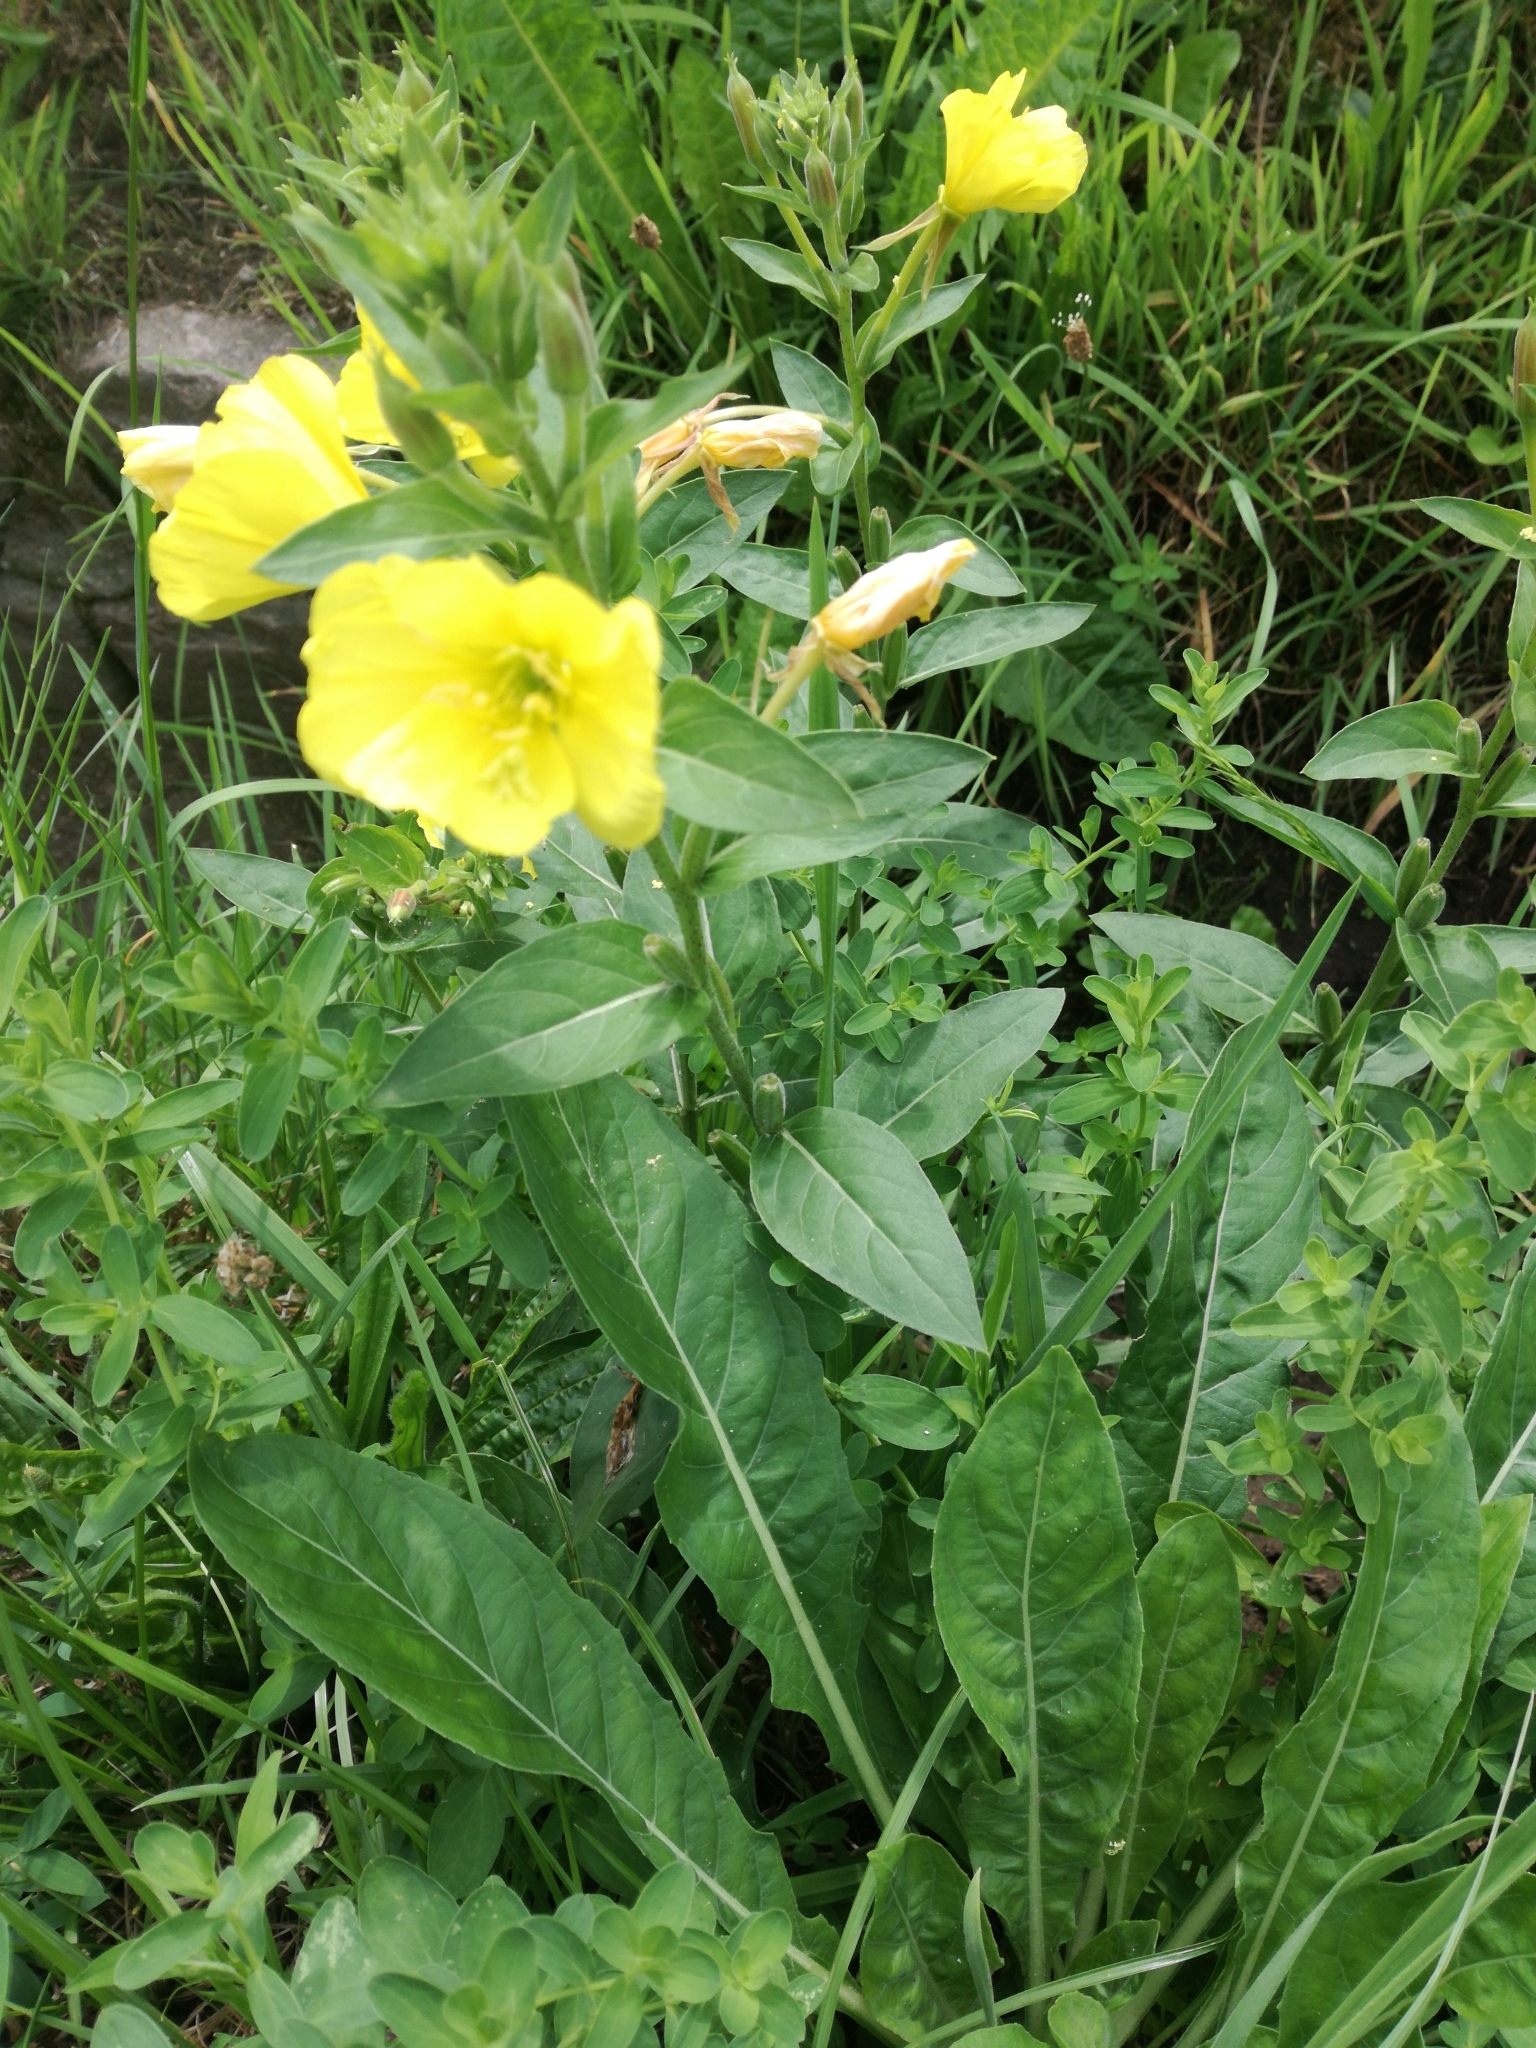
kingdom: Plantae
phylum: Tracheophyta
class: Magnoliopsida
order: Myrtales
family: Onagraceae
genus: Oenothera
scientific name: Oenothera biennis
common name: Common evening-primrose
